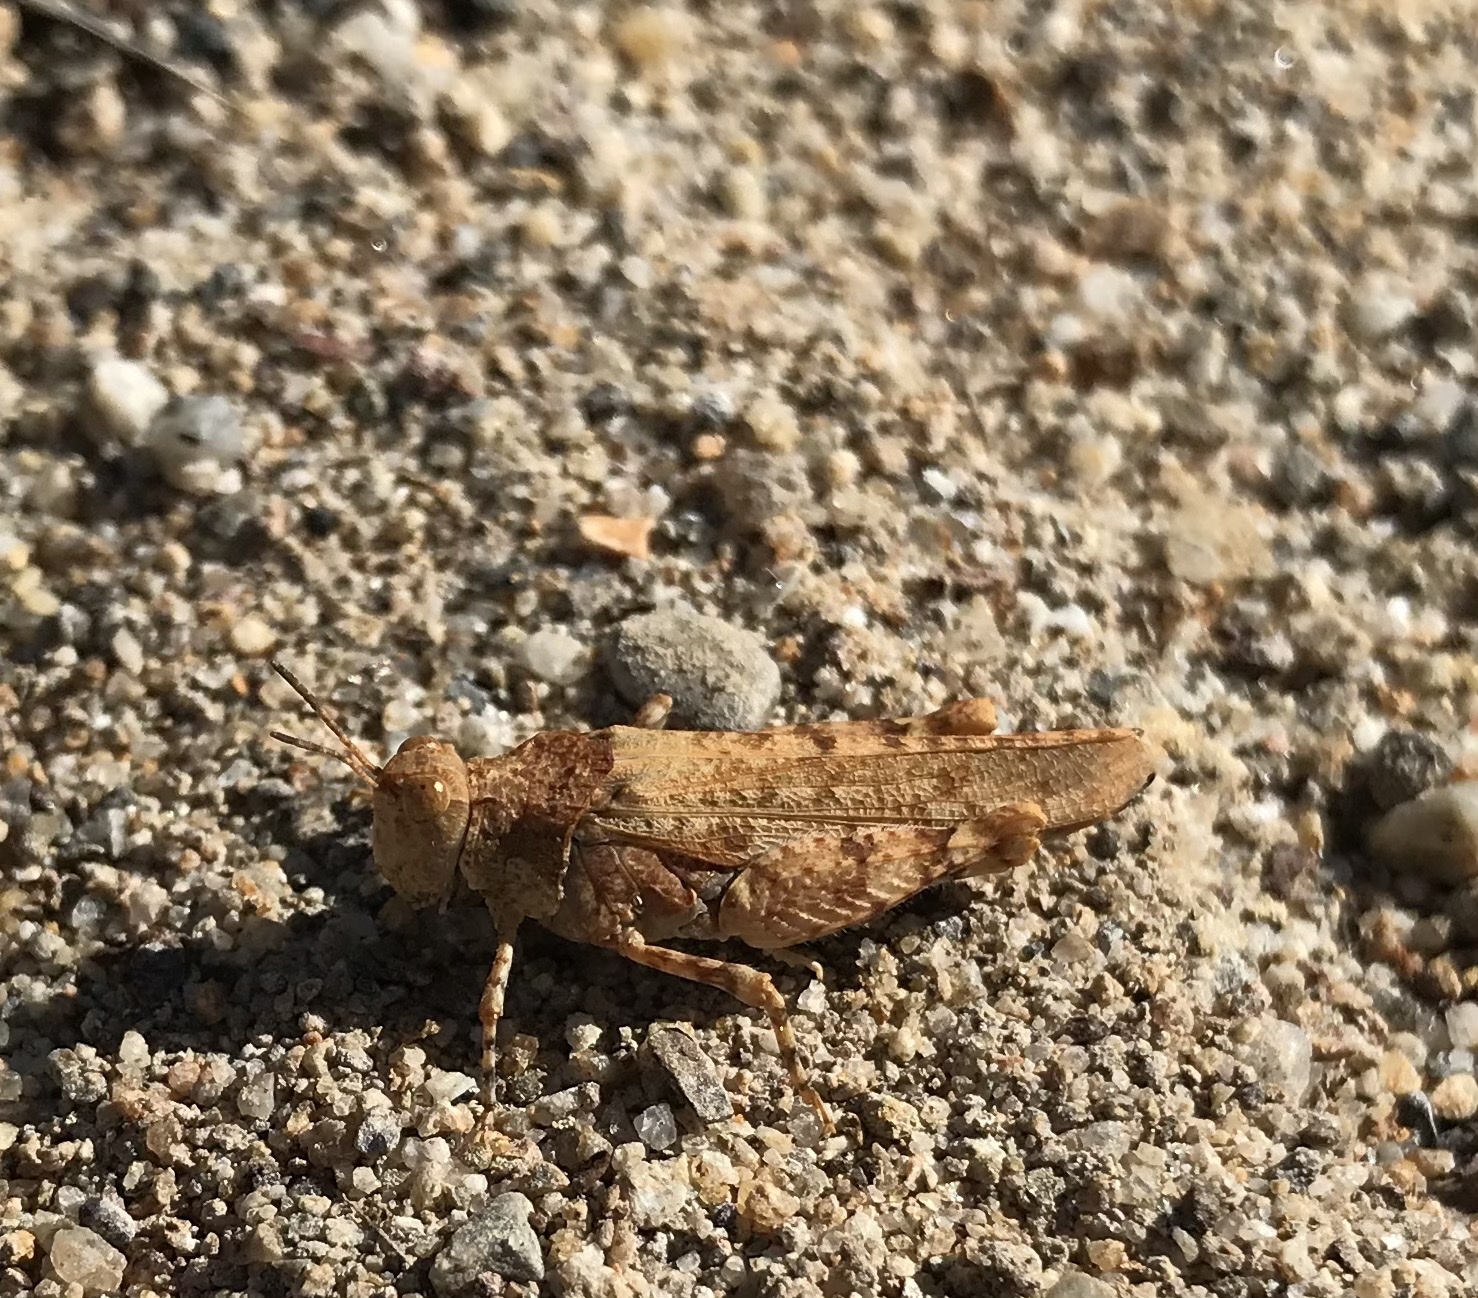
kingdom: Animalia
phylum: Arthropoda
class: Insecta
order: Orthoptera
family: Acrididae
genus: Cibolacris
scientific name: Cibolacris parviceps
